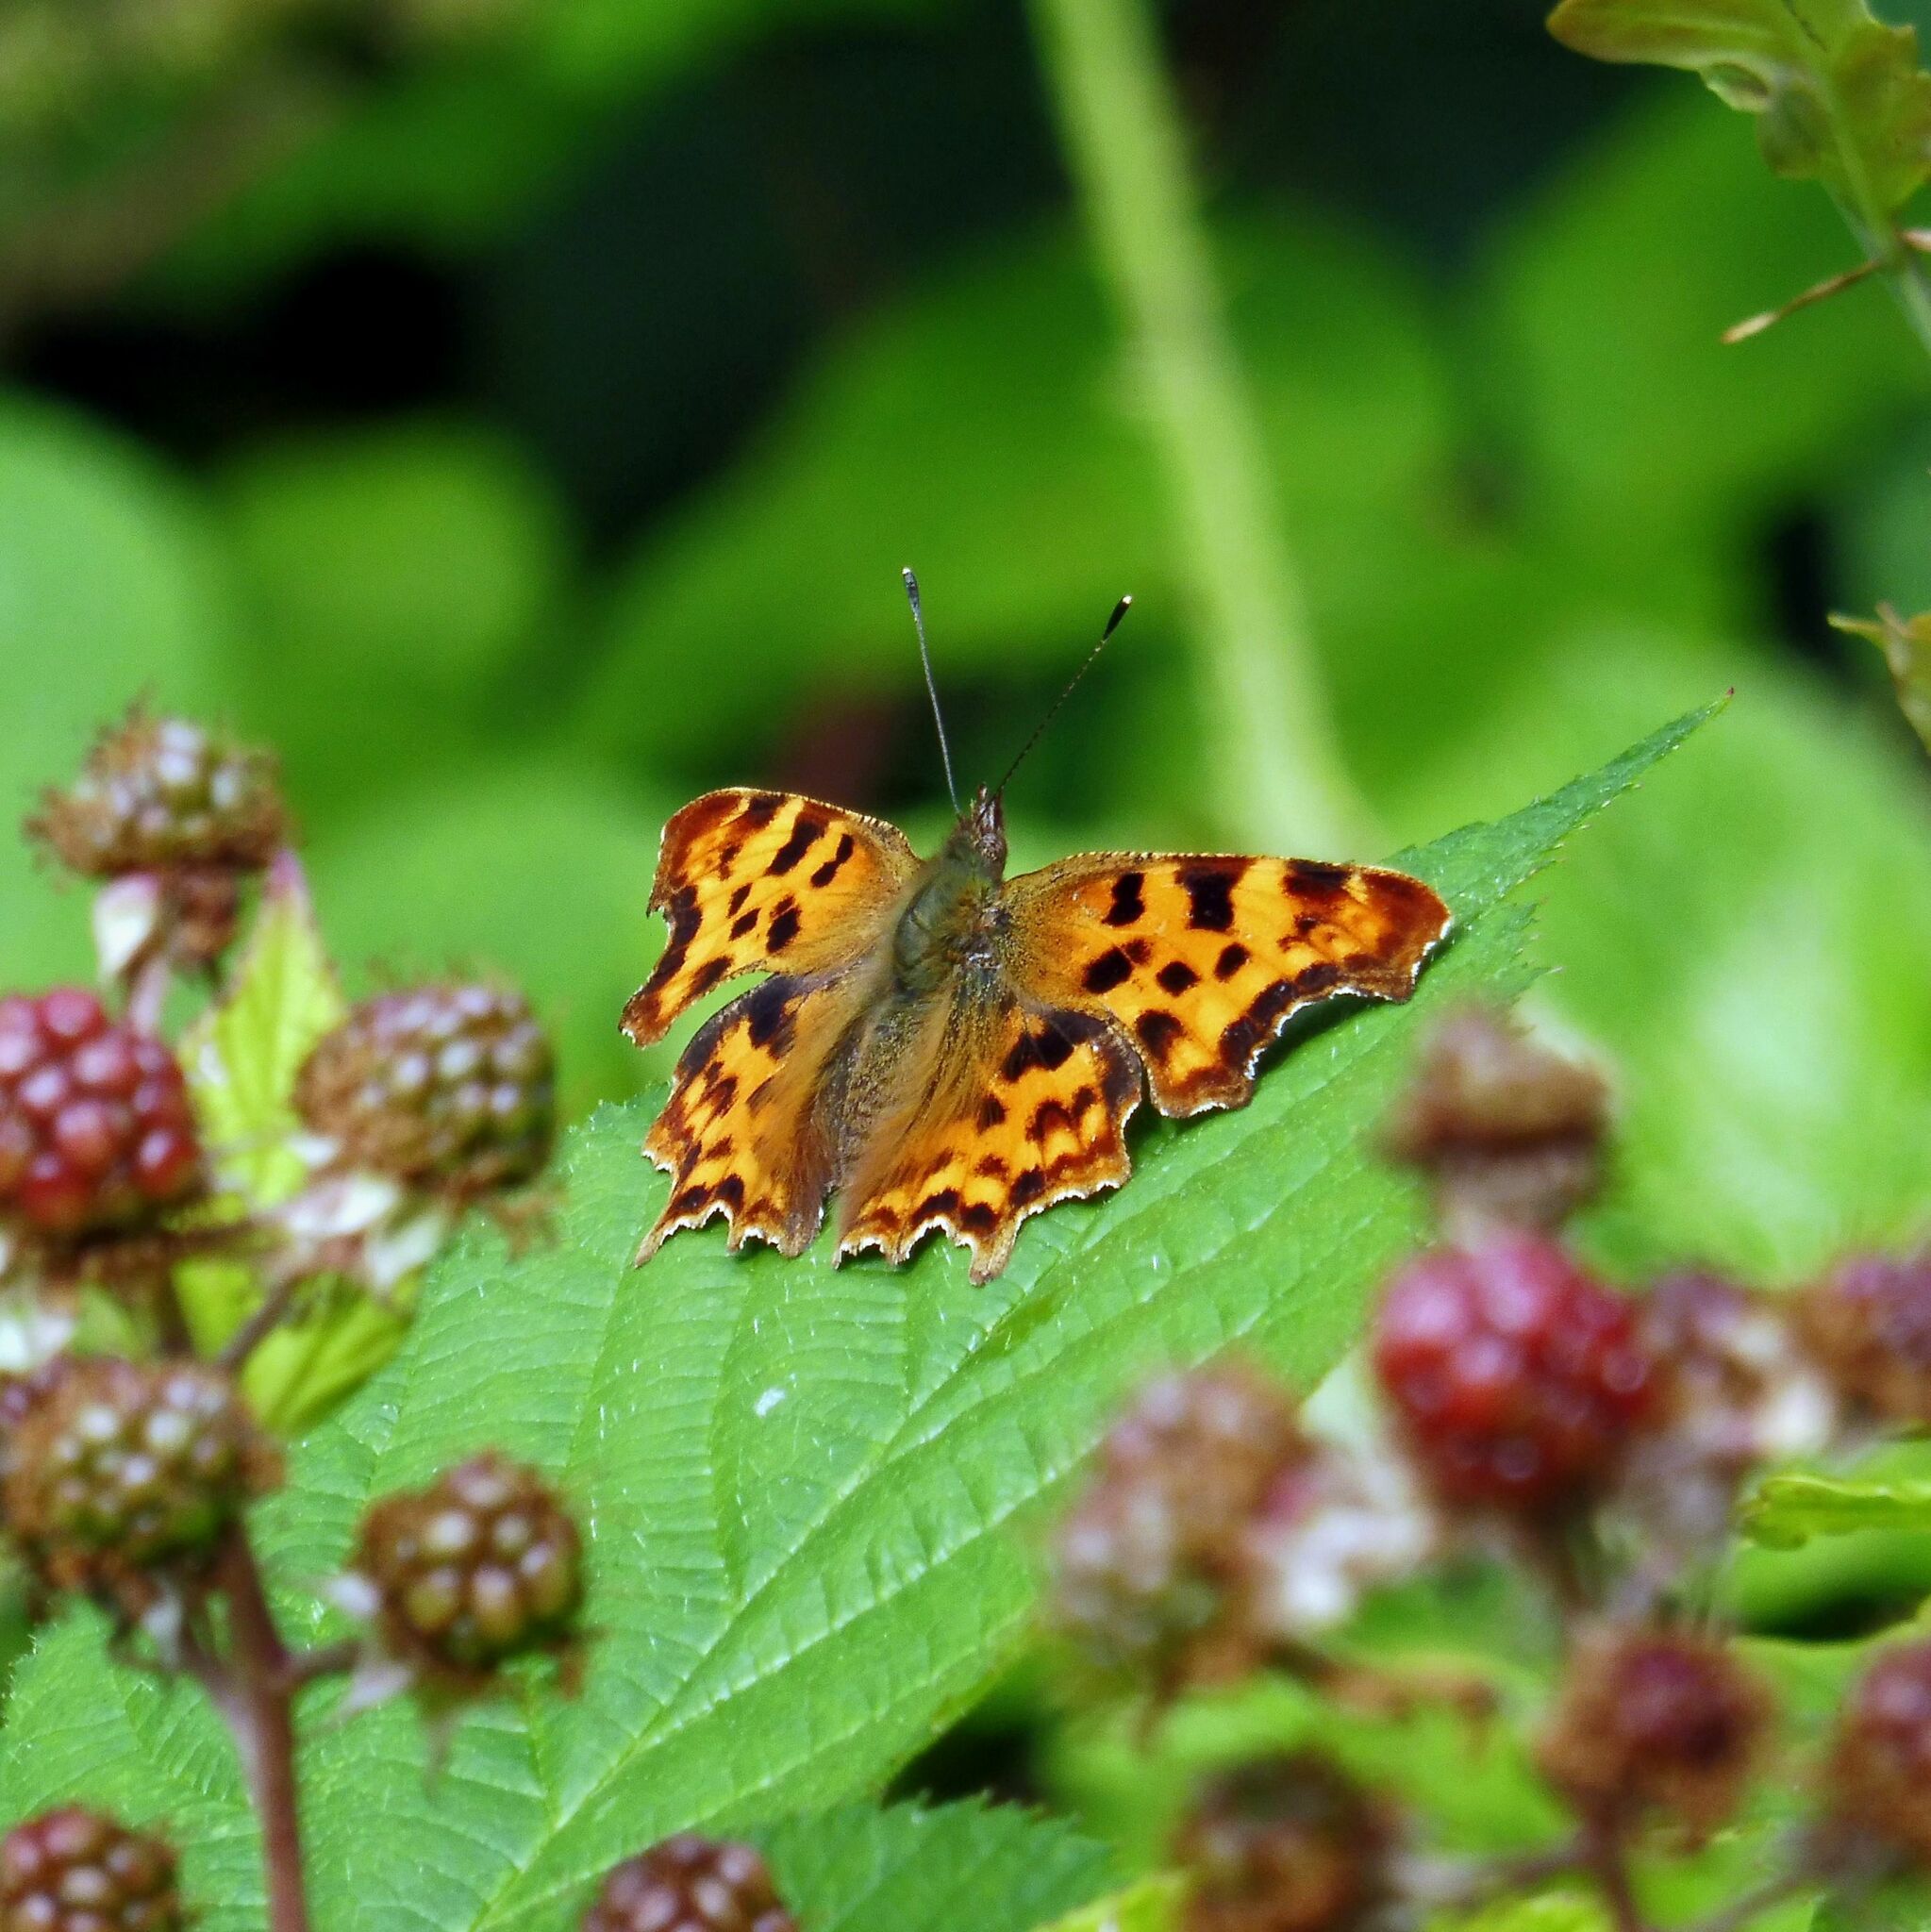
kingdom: Animalia
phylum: Arthropoda
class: Insecta
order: Lepidoptera
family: Nymphalidae
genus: Polygonia
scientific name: Polygonia c-album
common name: Comma
